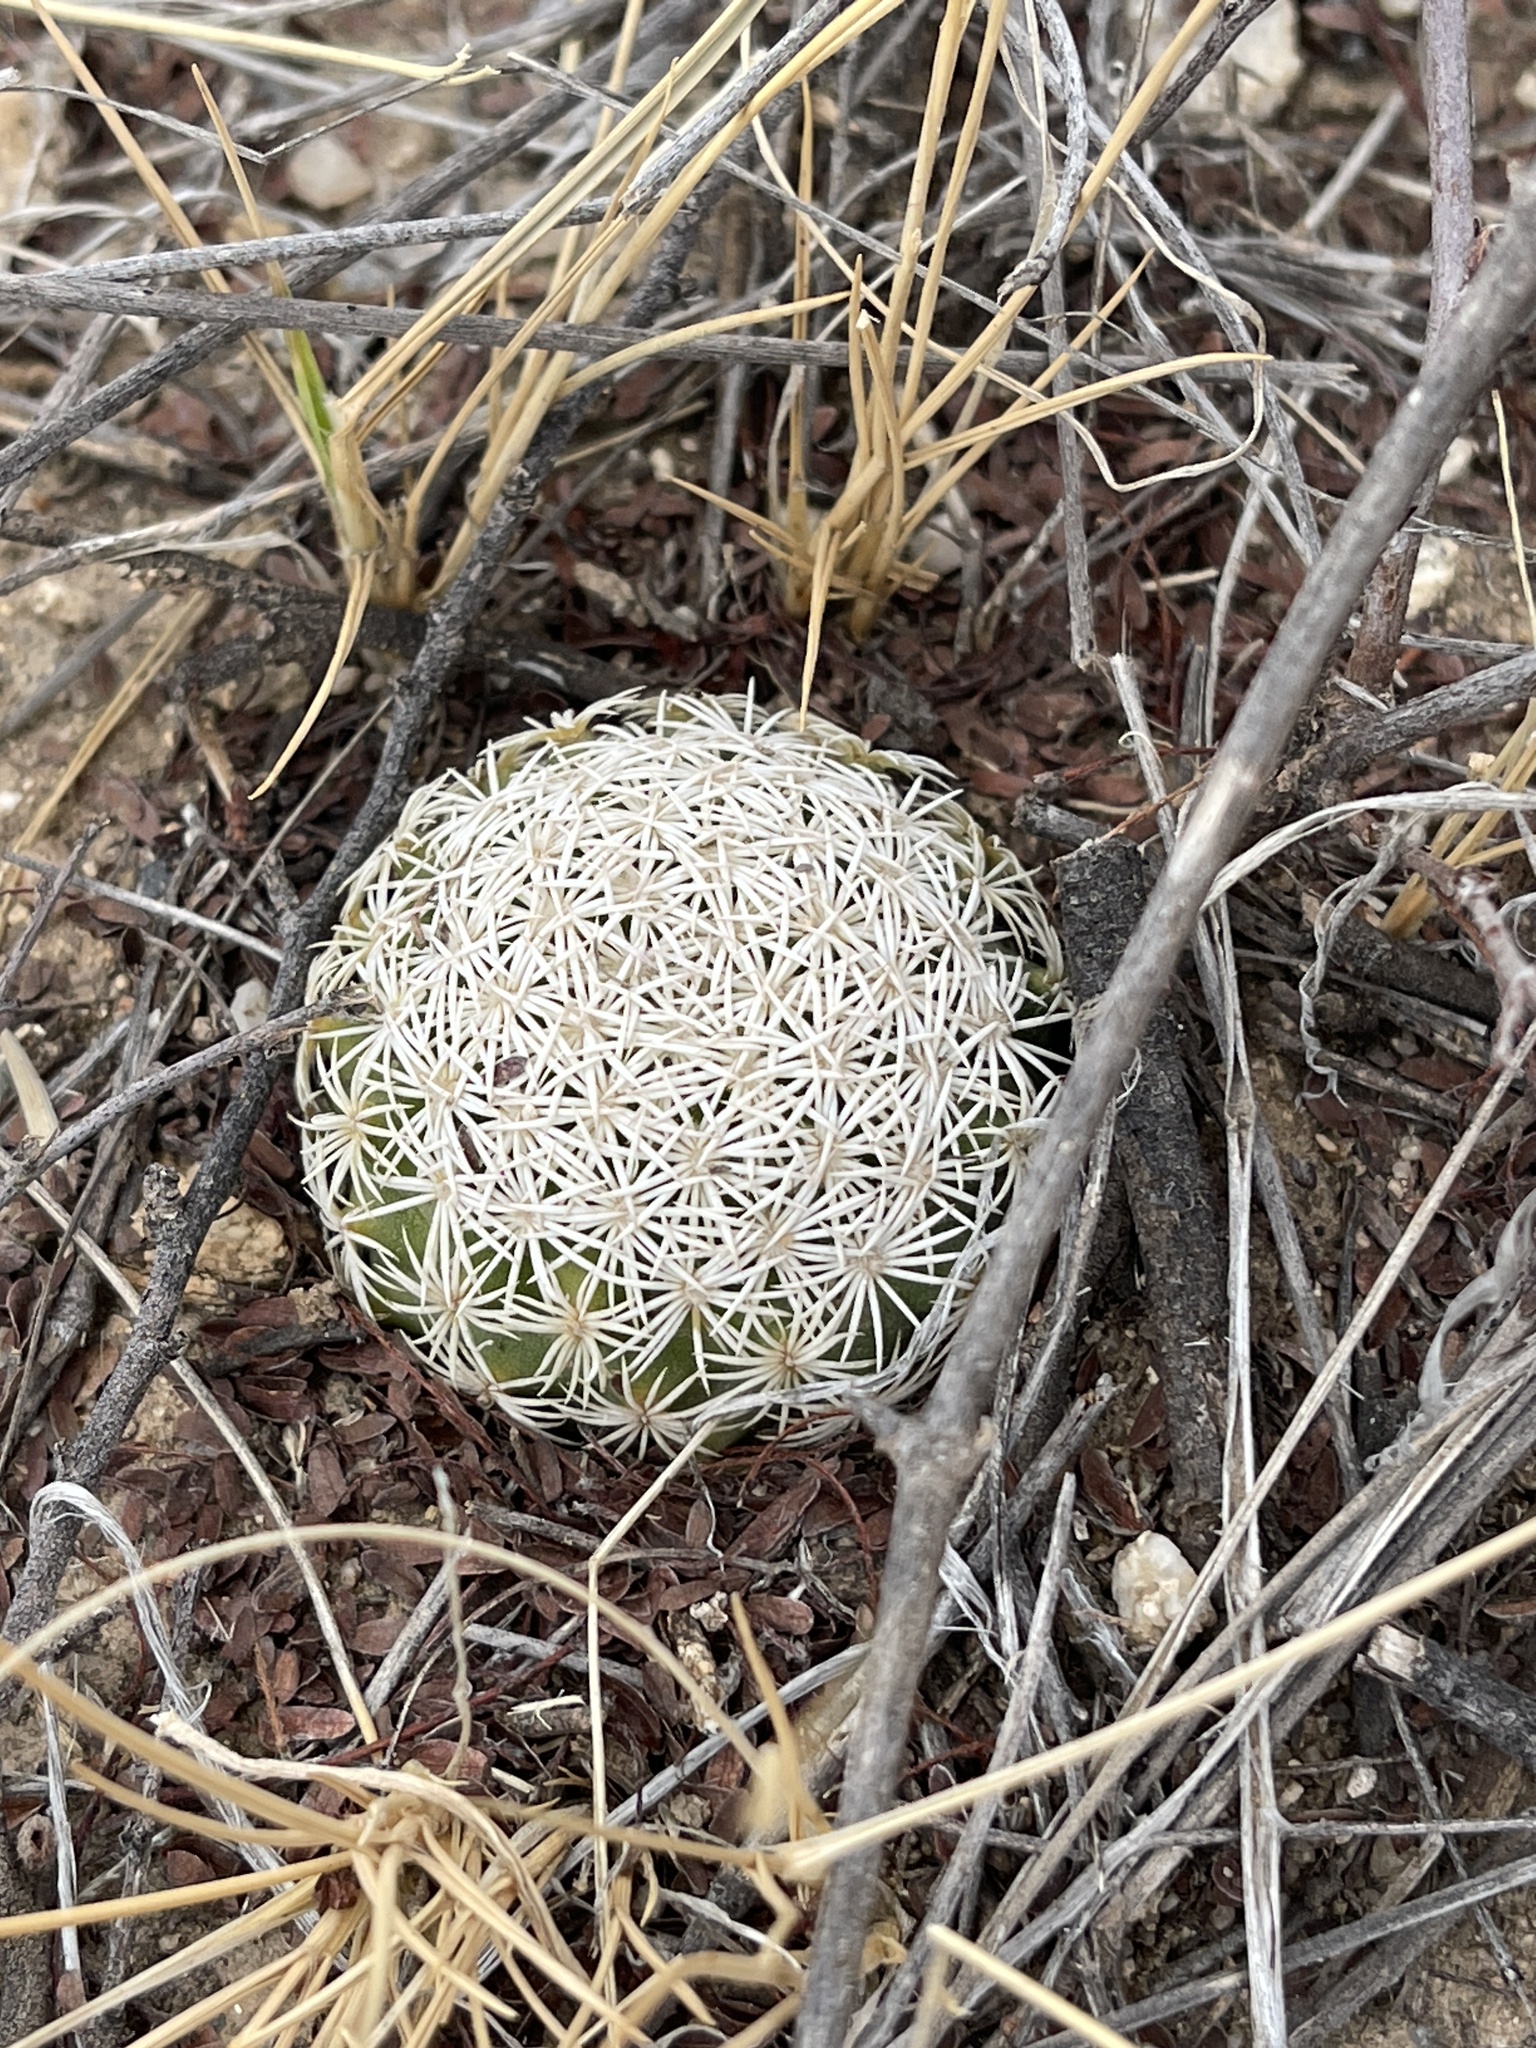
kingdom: Plantae
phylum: Tracheophyta
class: Magnoliopsida
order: Caryophyllales
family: Cactaceae
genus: Sclerocactus
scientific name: Sclerocactus johnsonii
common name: Eight-spine fishhook cactus
